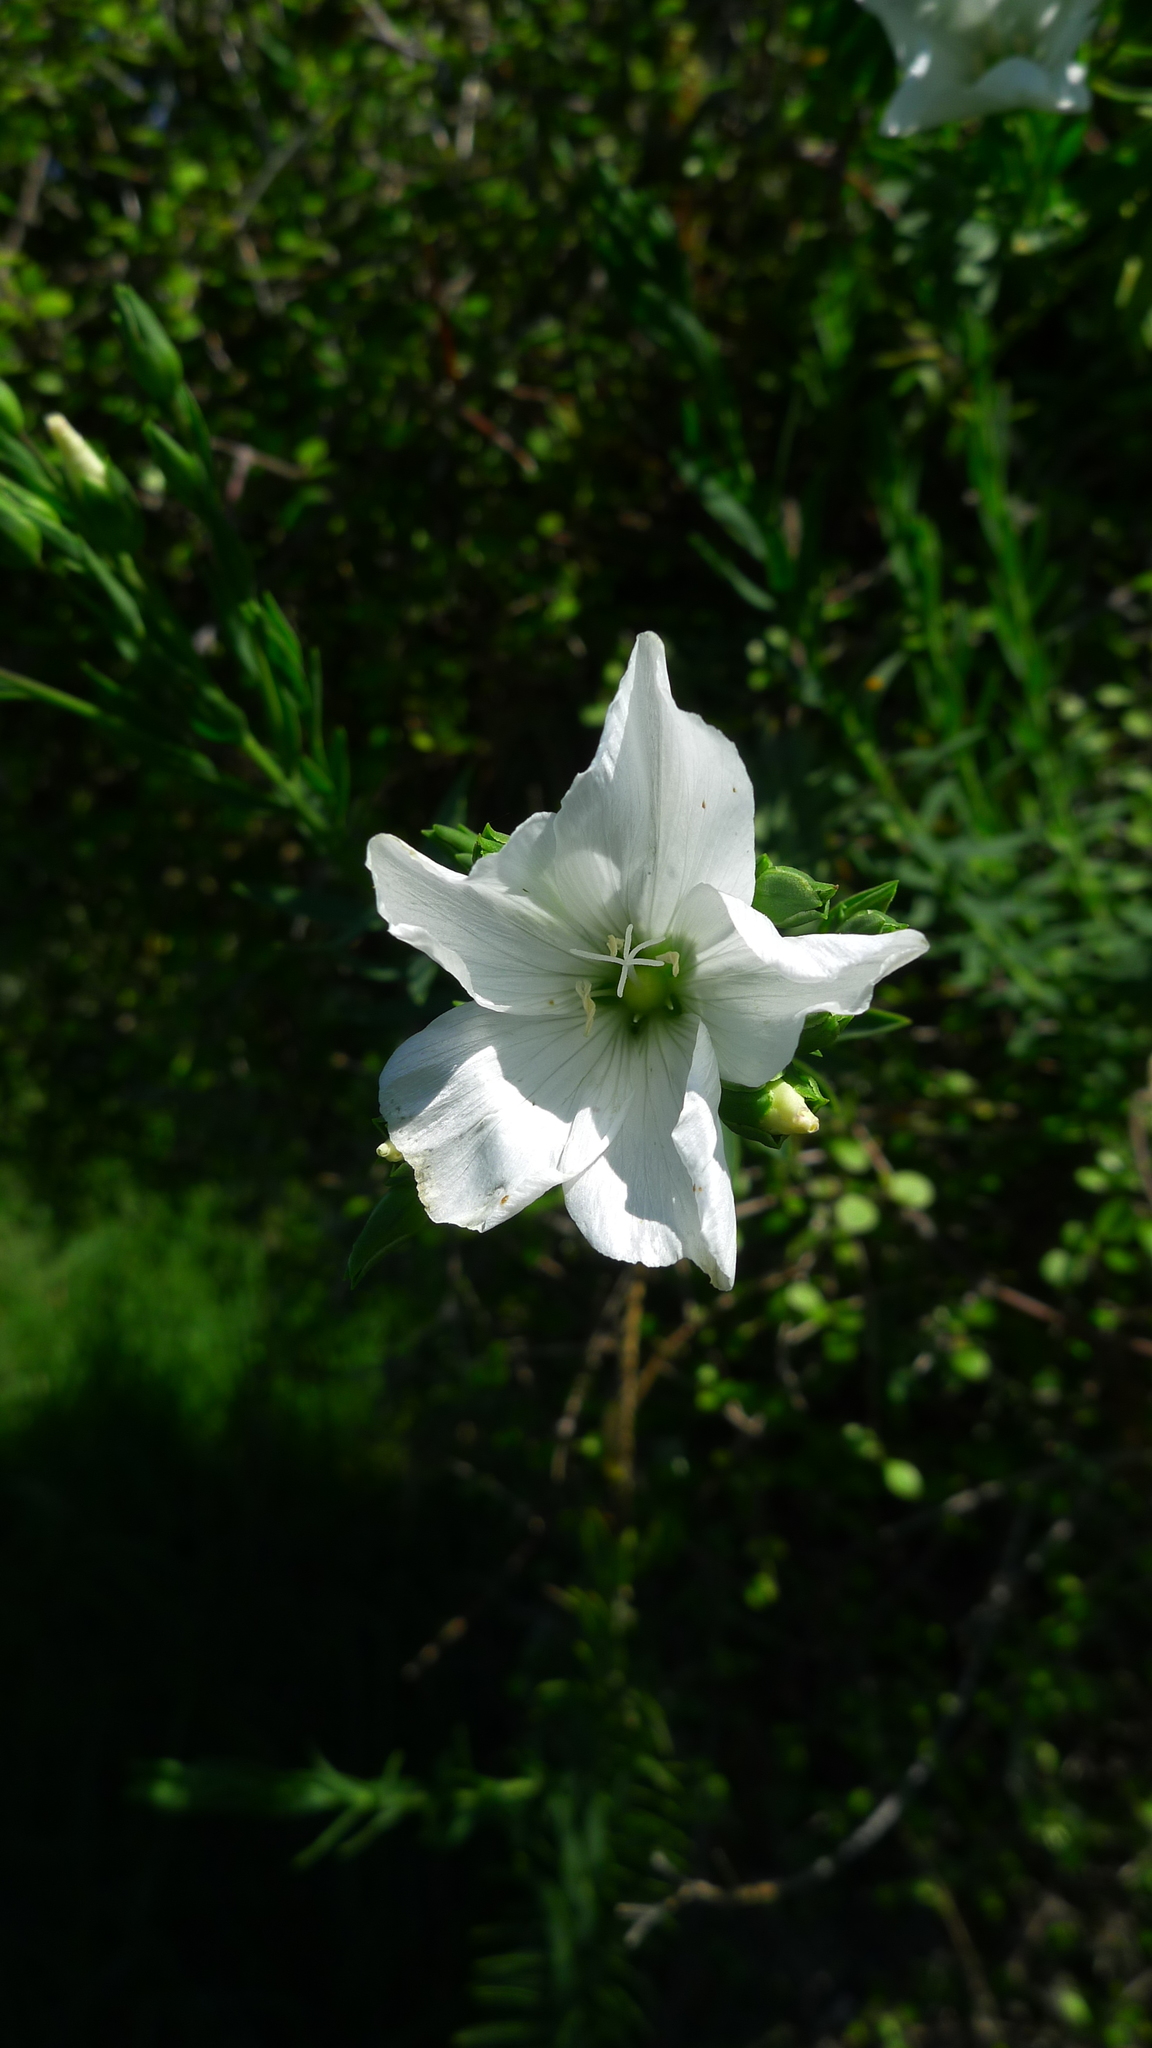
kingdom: Plantae
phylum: Tracheophyta
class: Magnoliopsida
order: Malpighiales
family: Linaceae
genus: Linum
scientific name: Linum monogynum
